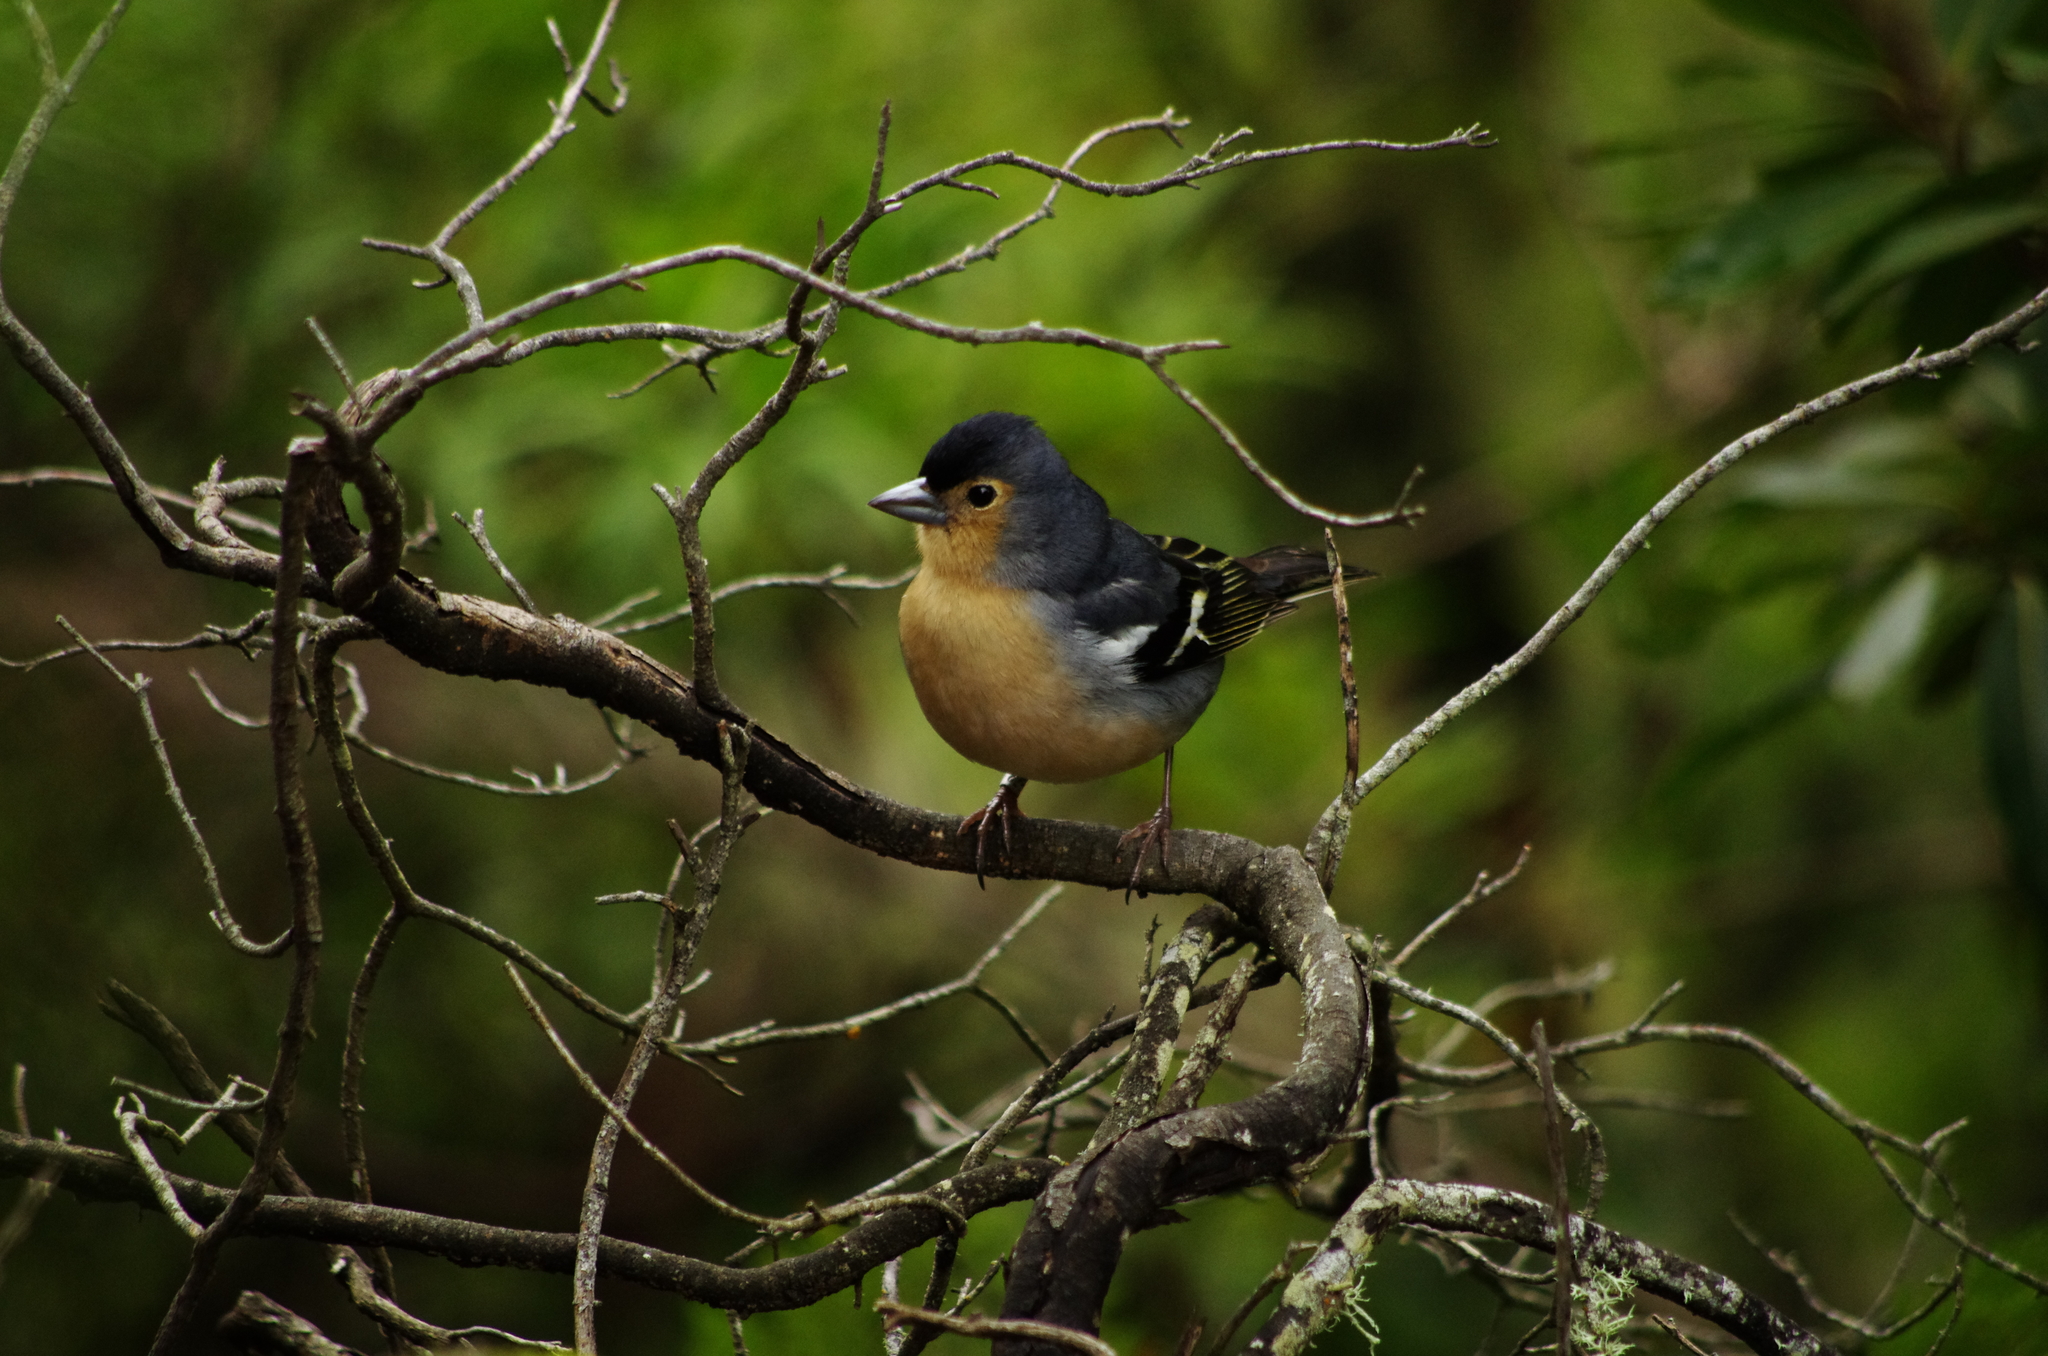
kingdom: Animalia
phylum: Chordata
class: Aves
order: Passeriformes
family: Fringillidae
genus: Fringilla
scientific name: Fringilla canariensis
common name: Canary islands chaffinch
